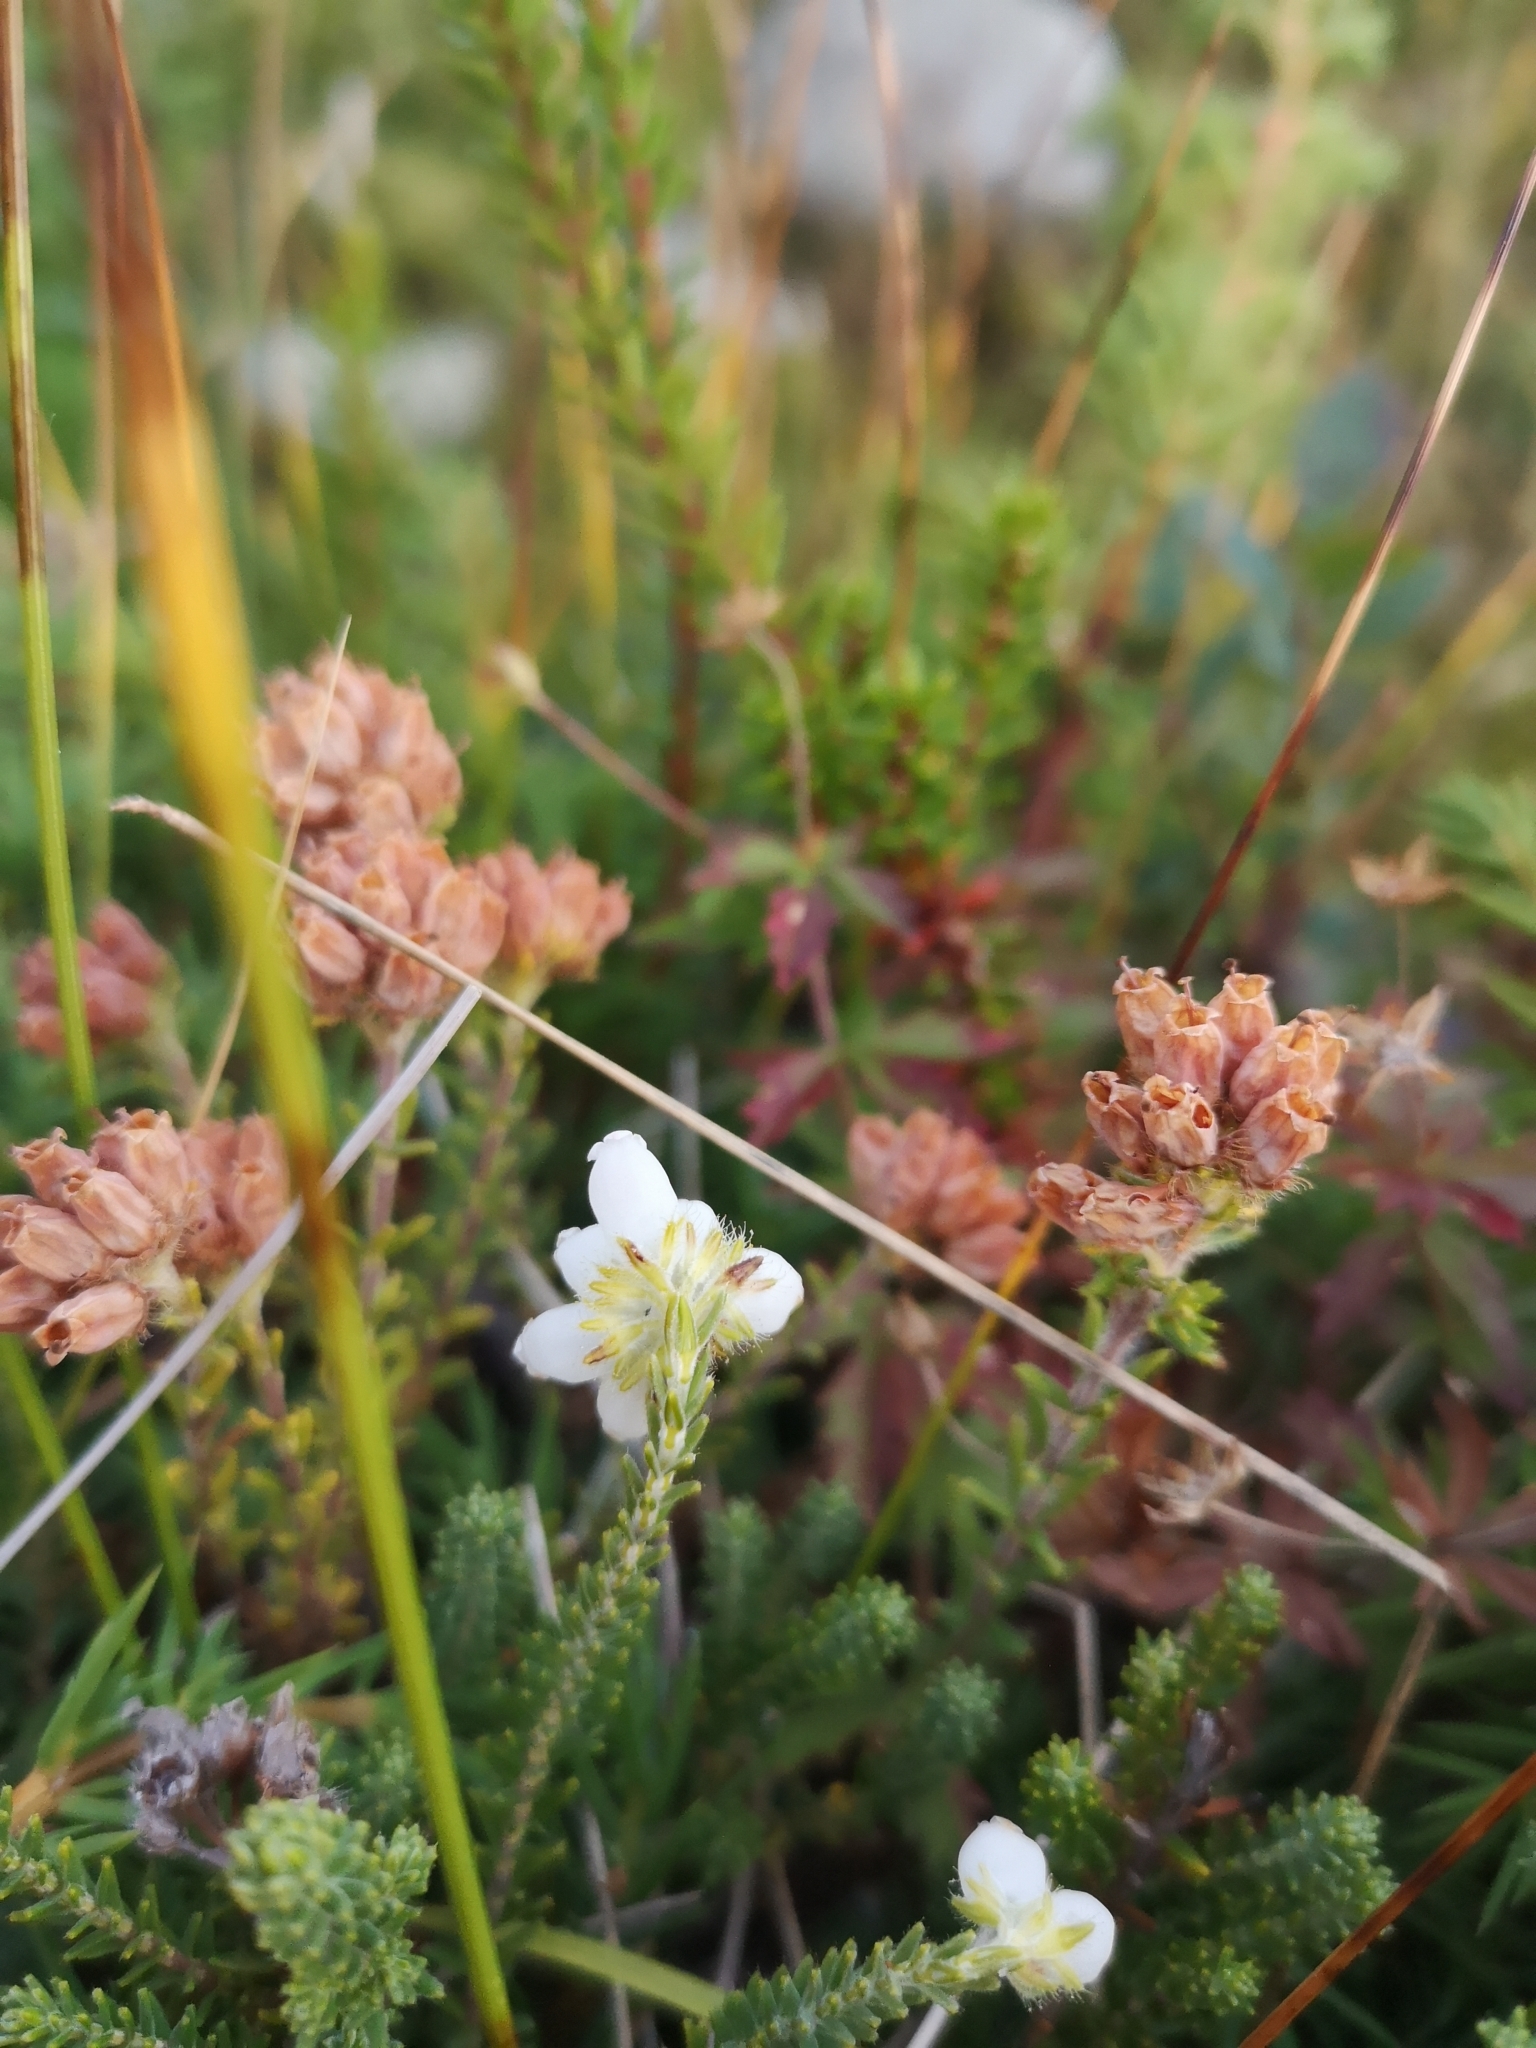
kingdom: Plantae
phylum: Tracheophyta
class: Magnoliopsida
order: Ericales
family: Ericaceae
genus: Erica
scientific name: Erica tetralix
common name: Cross-leaved heath
